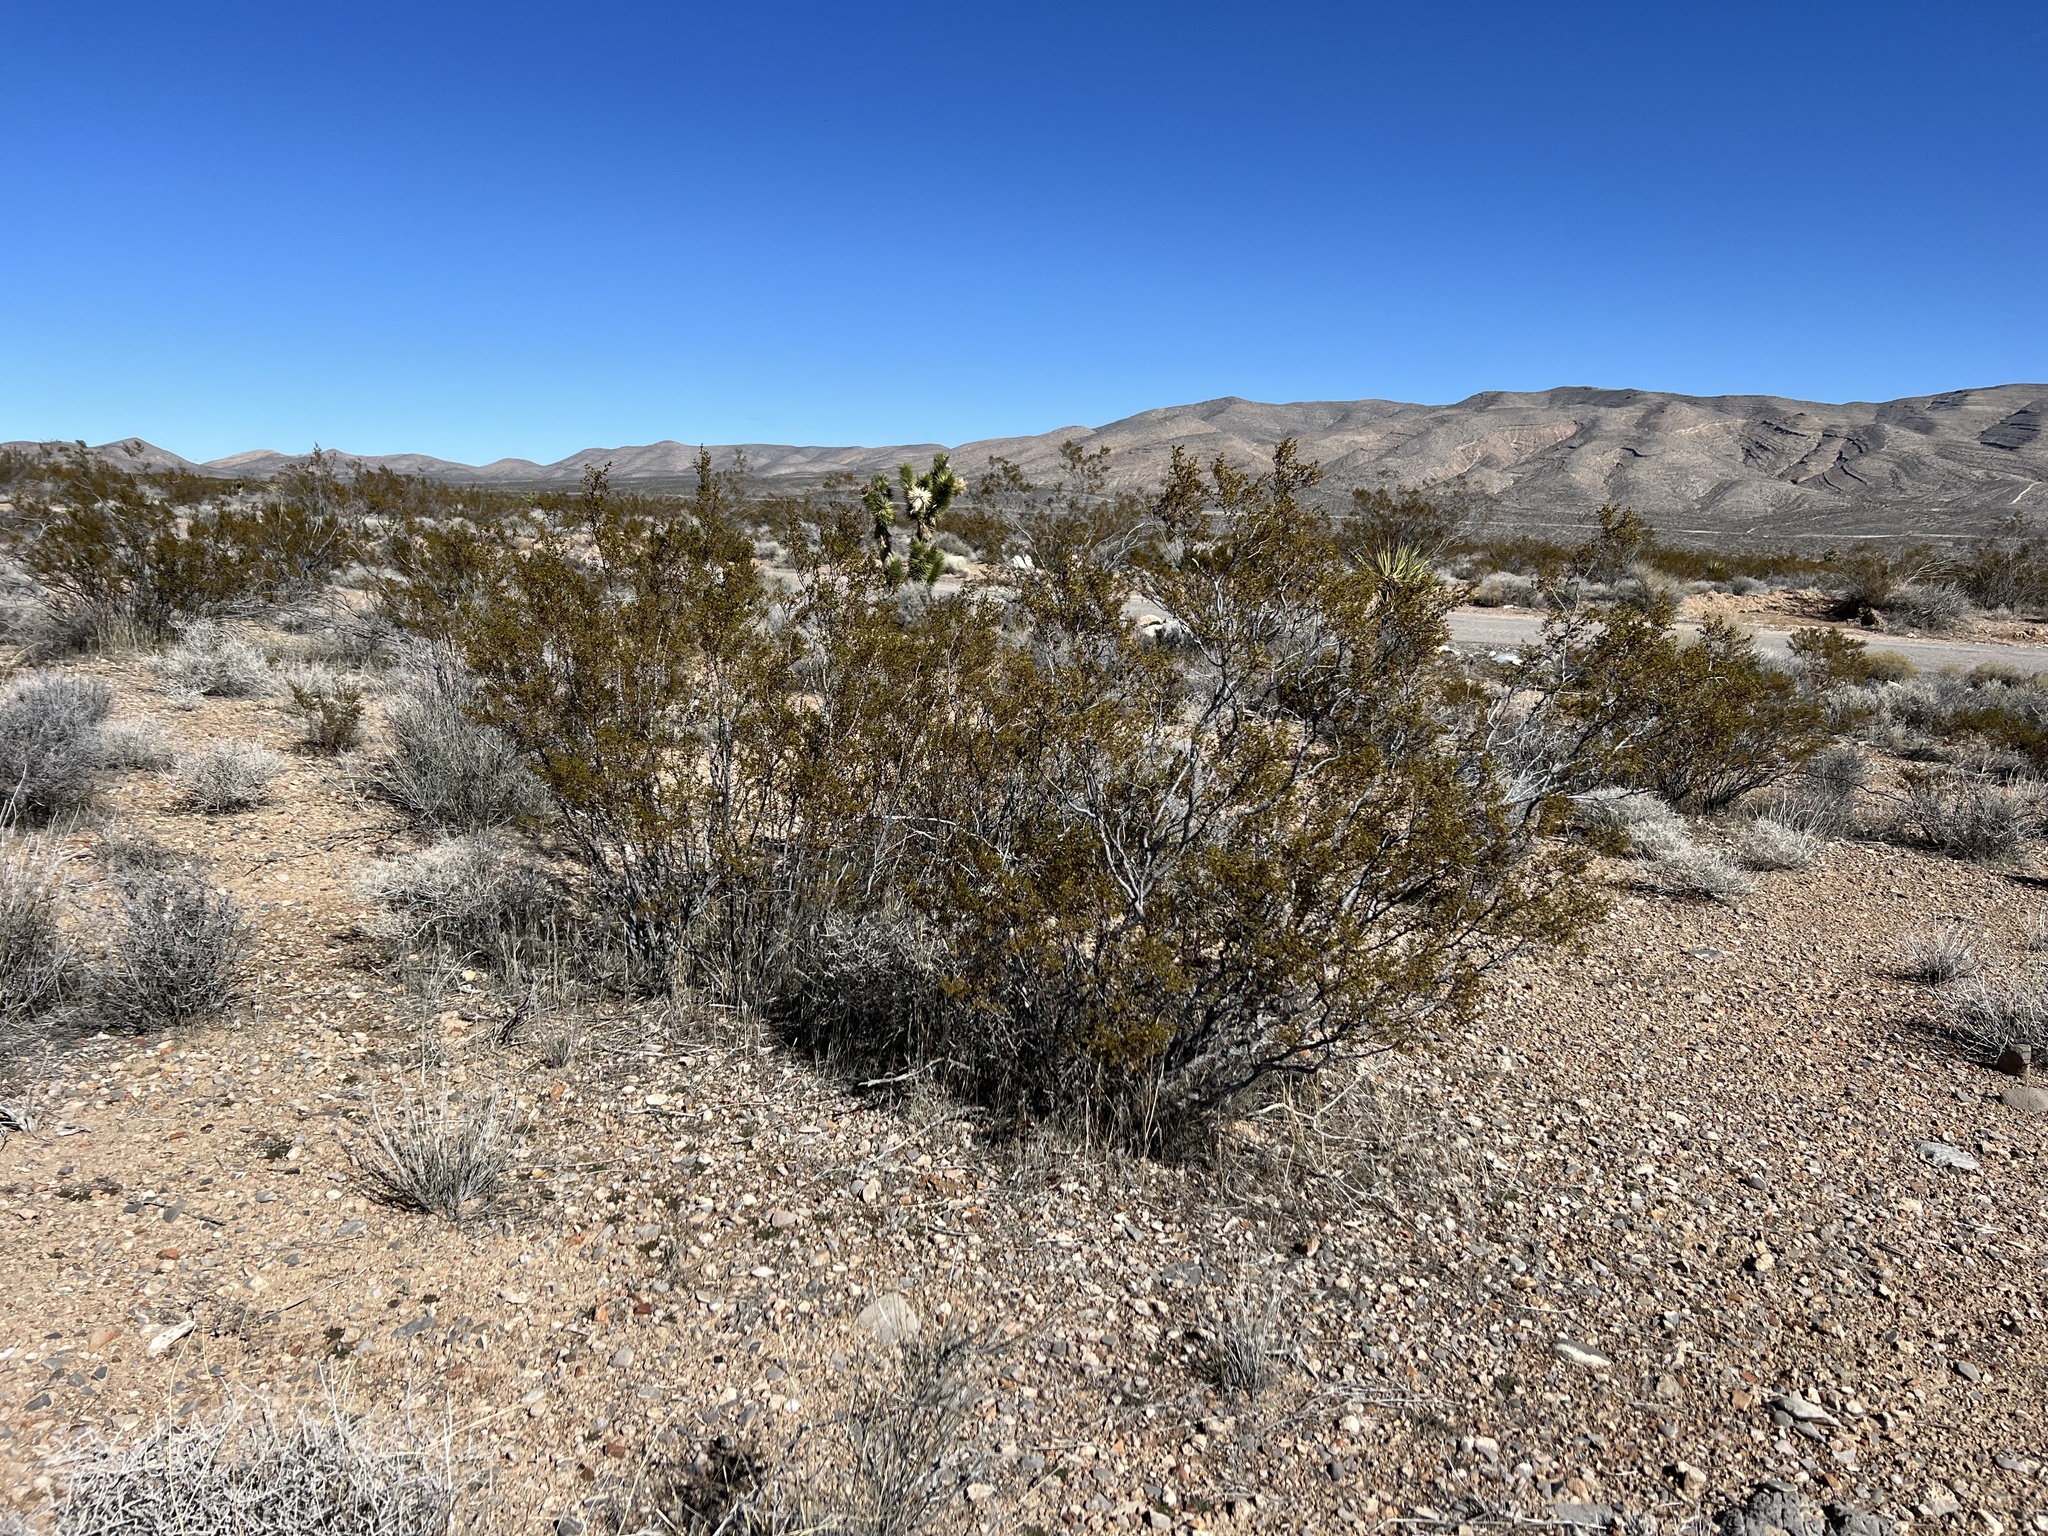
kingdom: Plantae
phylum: Tracheophyta
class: Magnoliopsida
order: Zygophyllales
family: Zygophyllaceae
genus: Larrea
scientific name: Larrea tridentata
